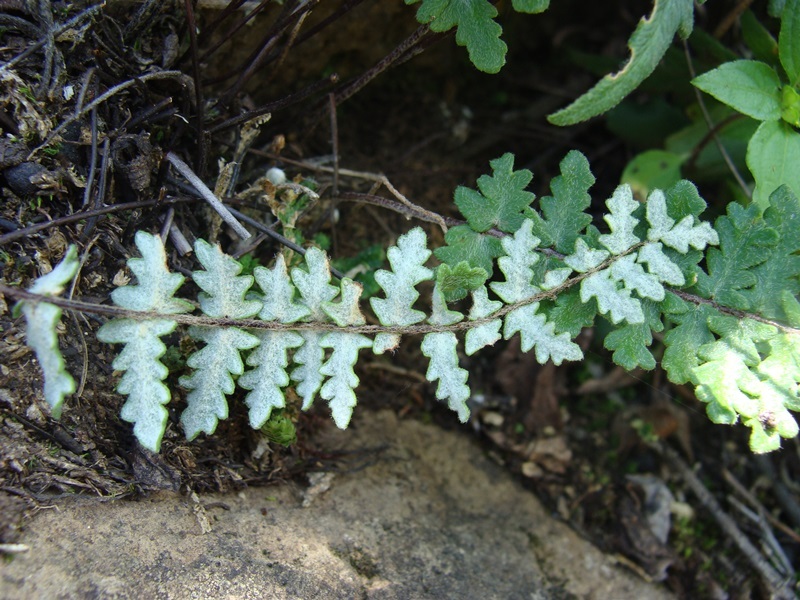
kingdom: Plantae
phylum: Tracheophyta
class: Polypodiopsida
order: Polypodiales
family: Pteridaceae
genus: Myriopteris
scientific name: Myriopteris aurea
